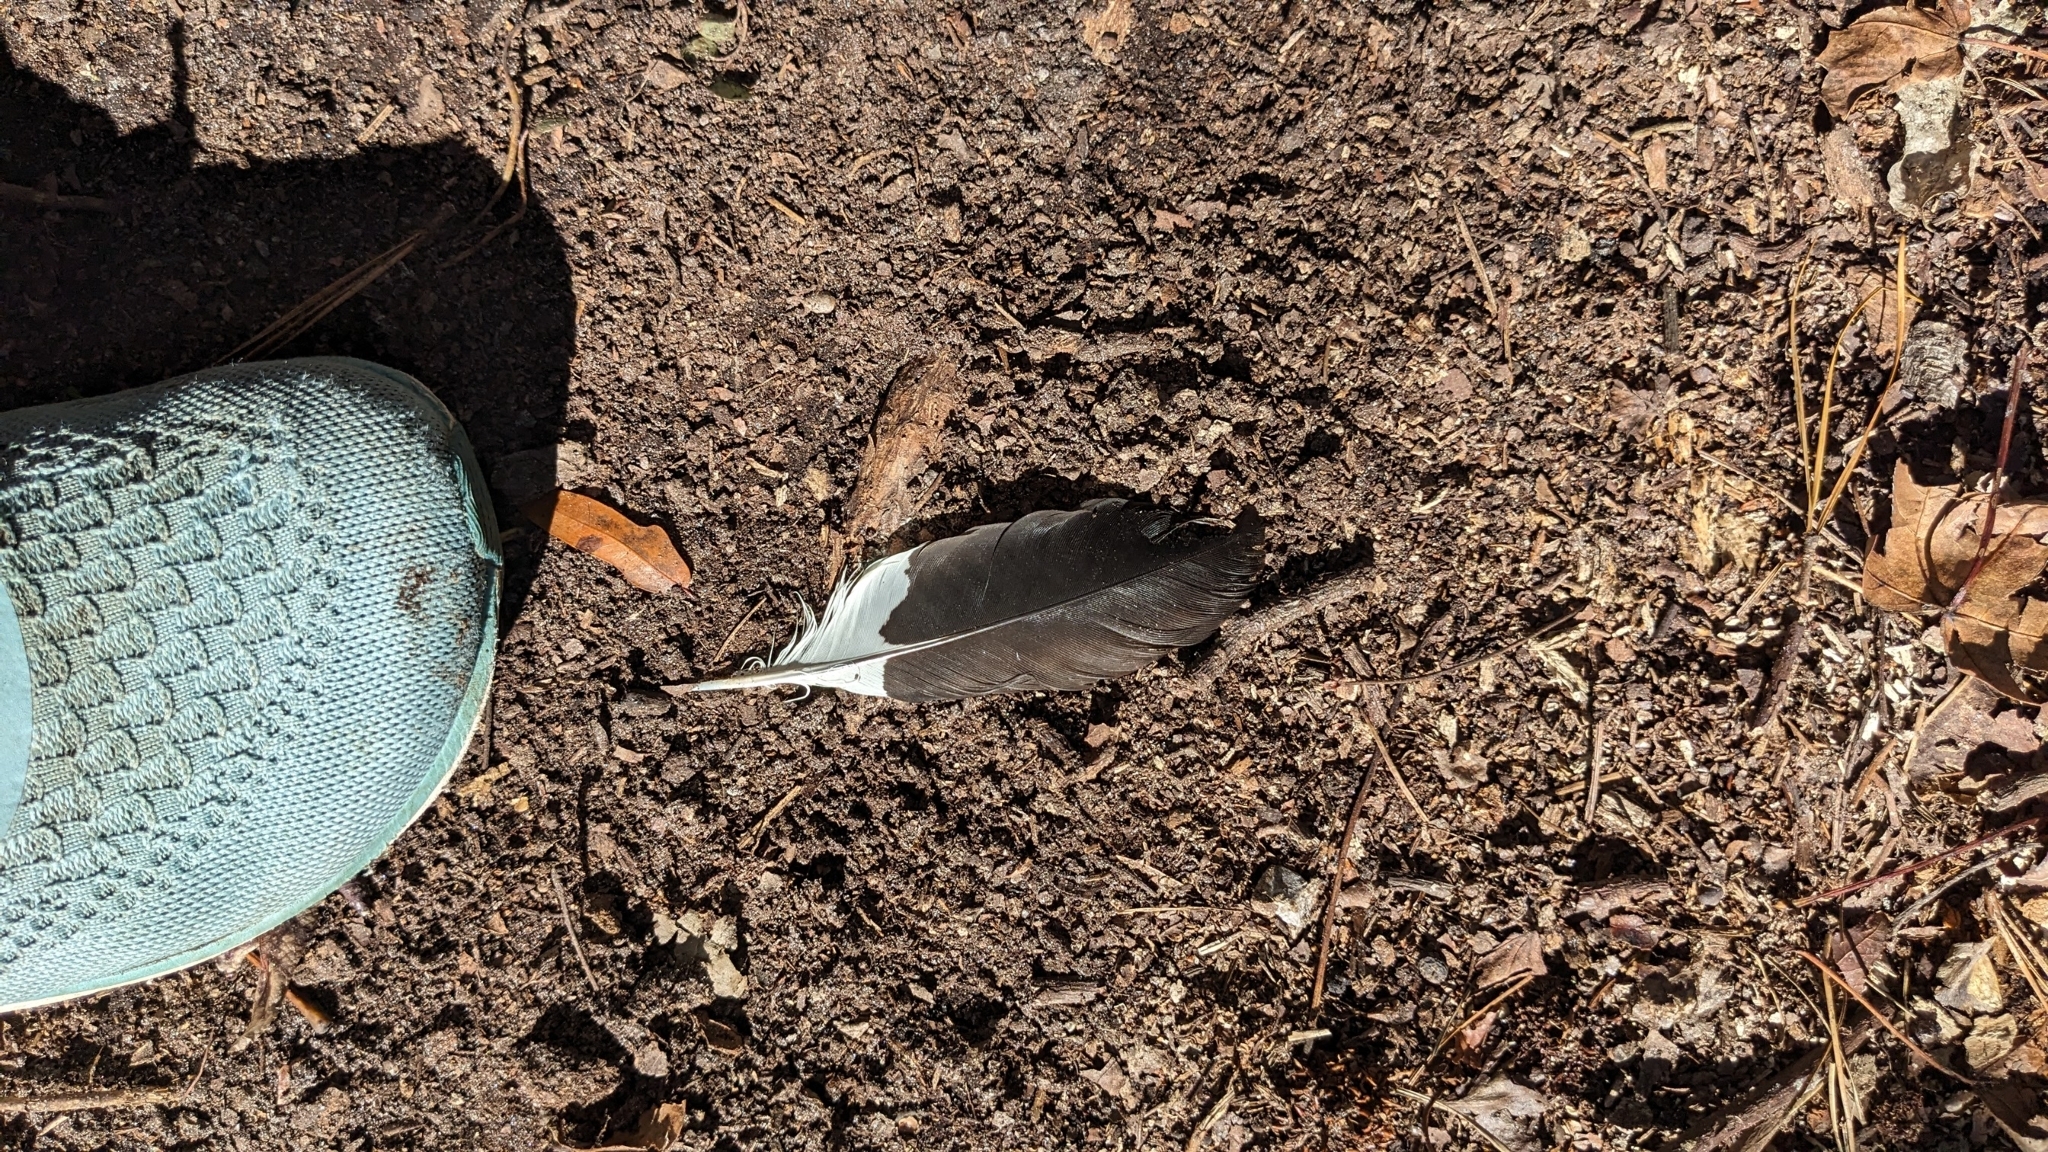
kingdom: Animalia
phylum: Chordata
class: Aves
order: Piciformes
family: Picidae
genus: Dryocopus
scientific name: Dryocopus pileatus
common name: Pileated woodpecker
